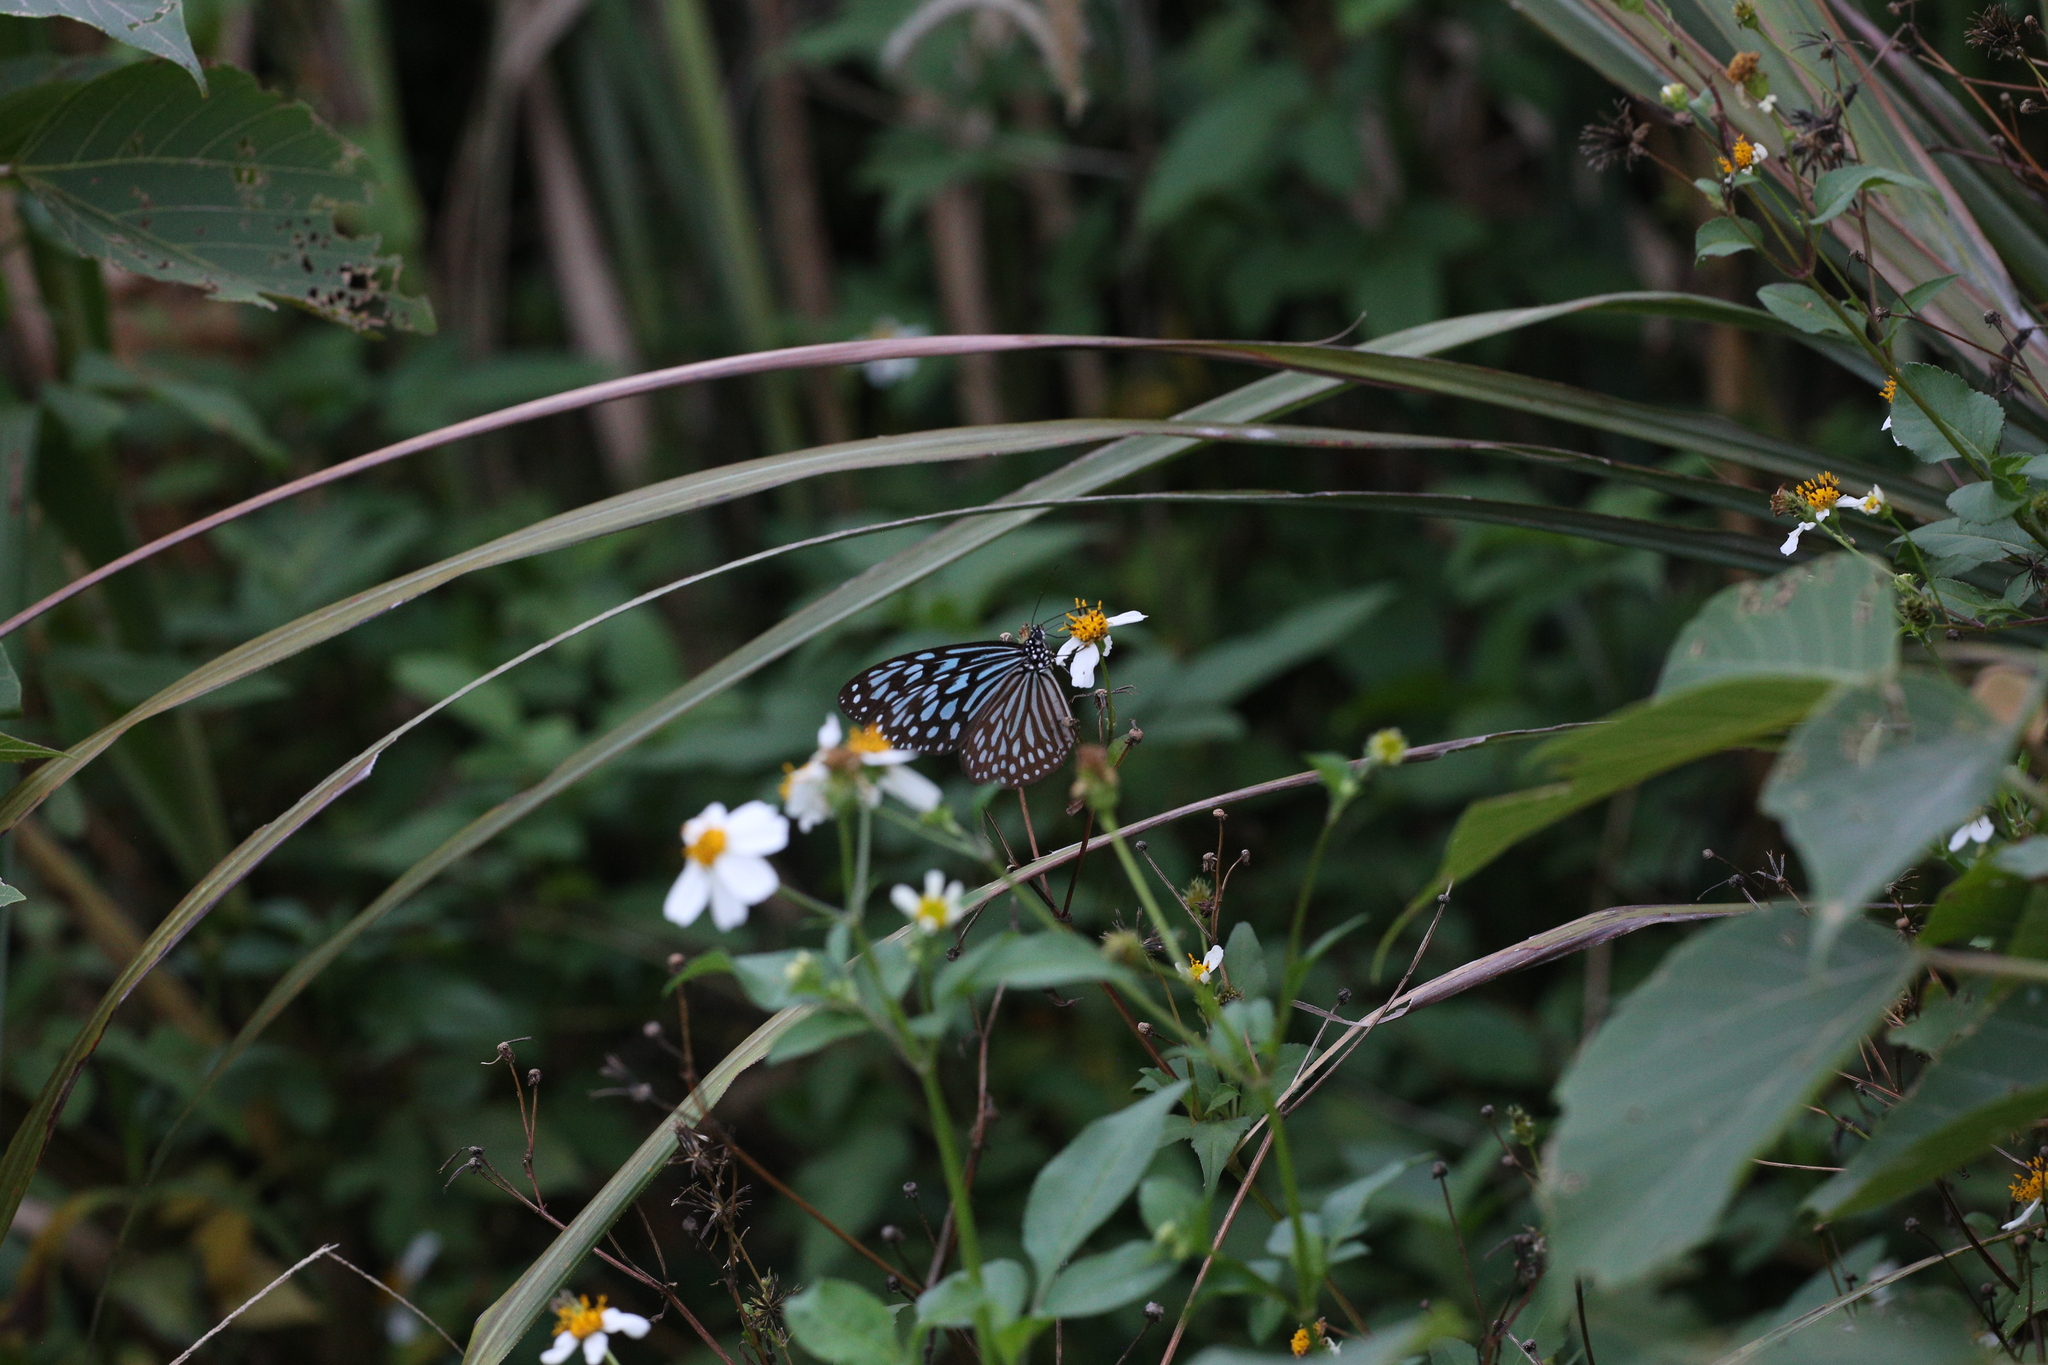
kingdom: Animalia
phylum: Arthropoda
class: Insecta
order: Lepidoptera
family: Nymphalidae
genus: Ideopsis
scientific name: Ideopsis similis
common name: Ceylon blue glassy tiger
